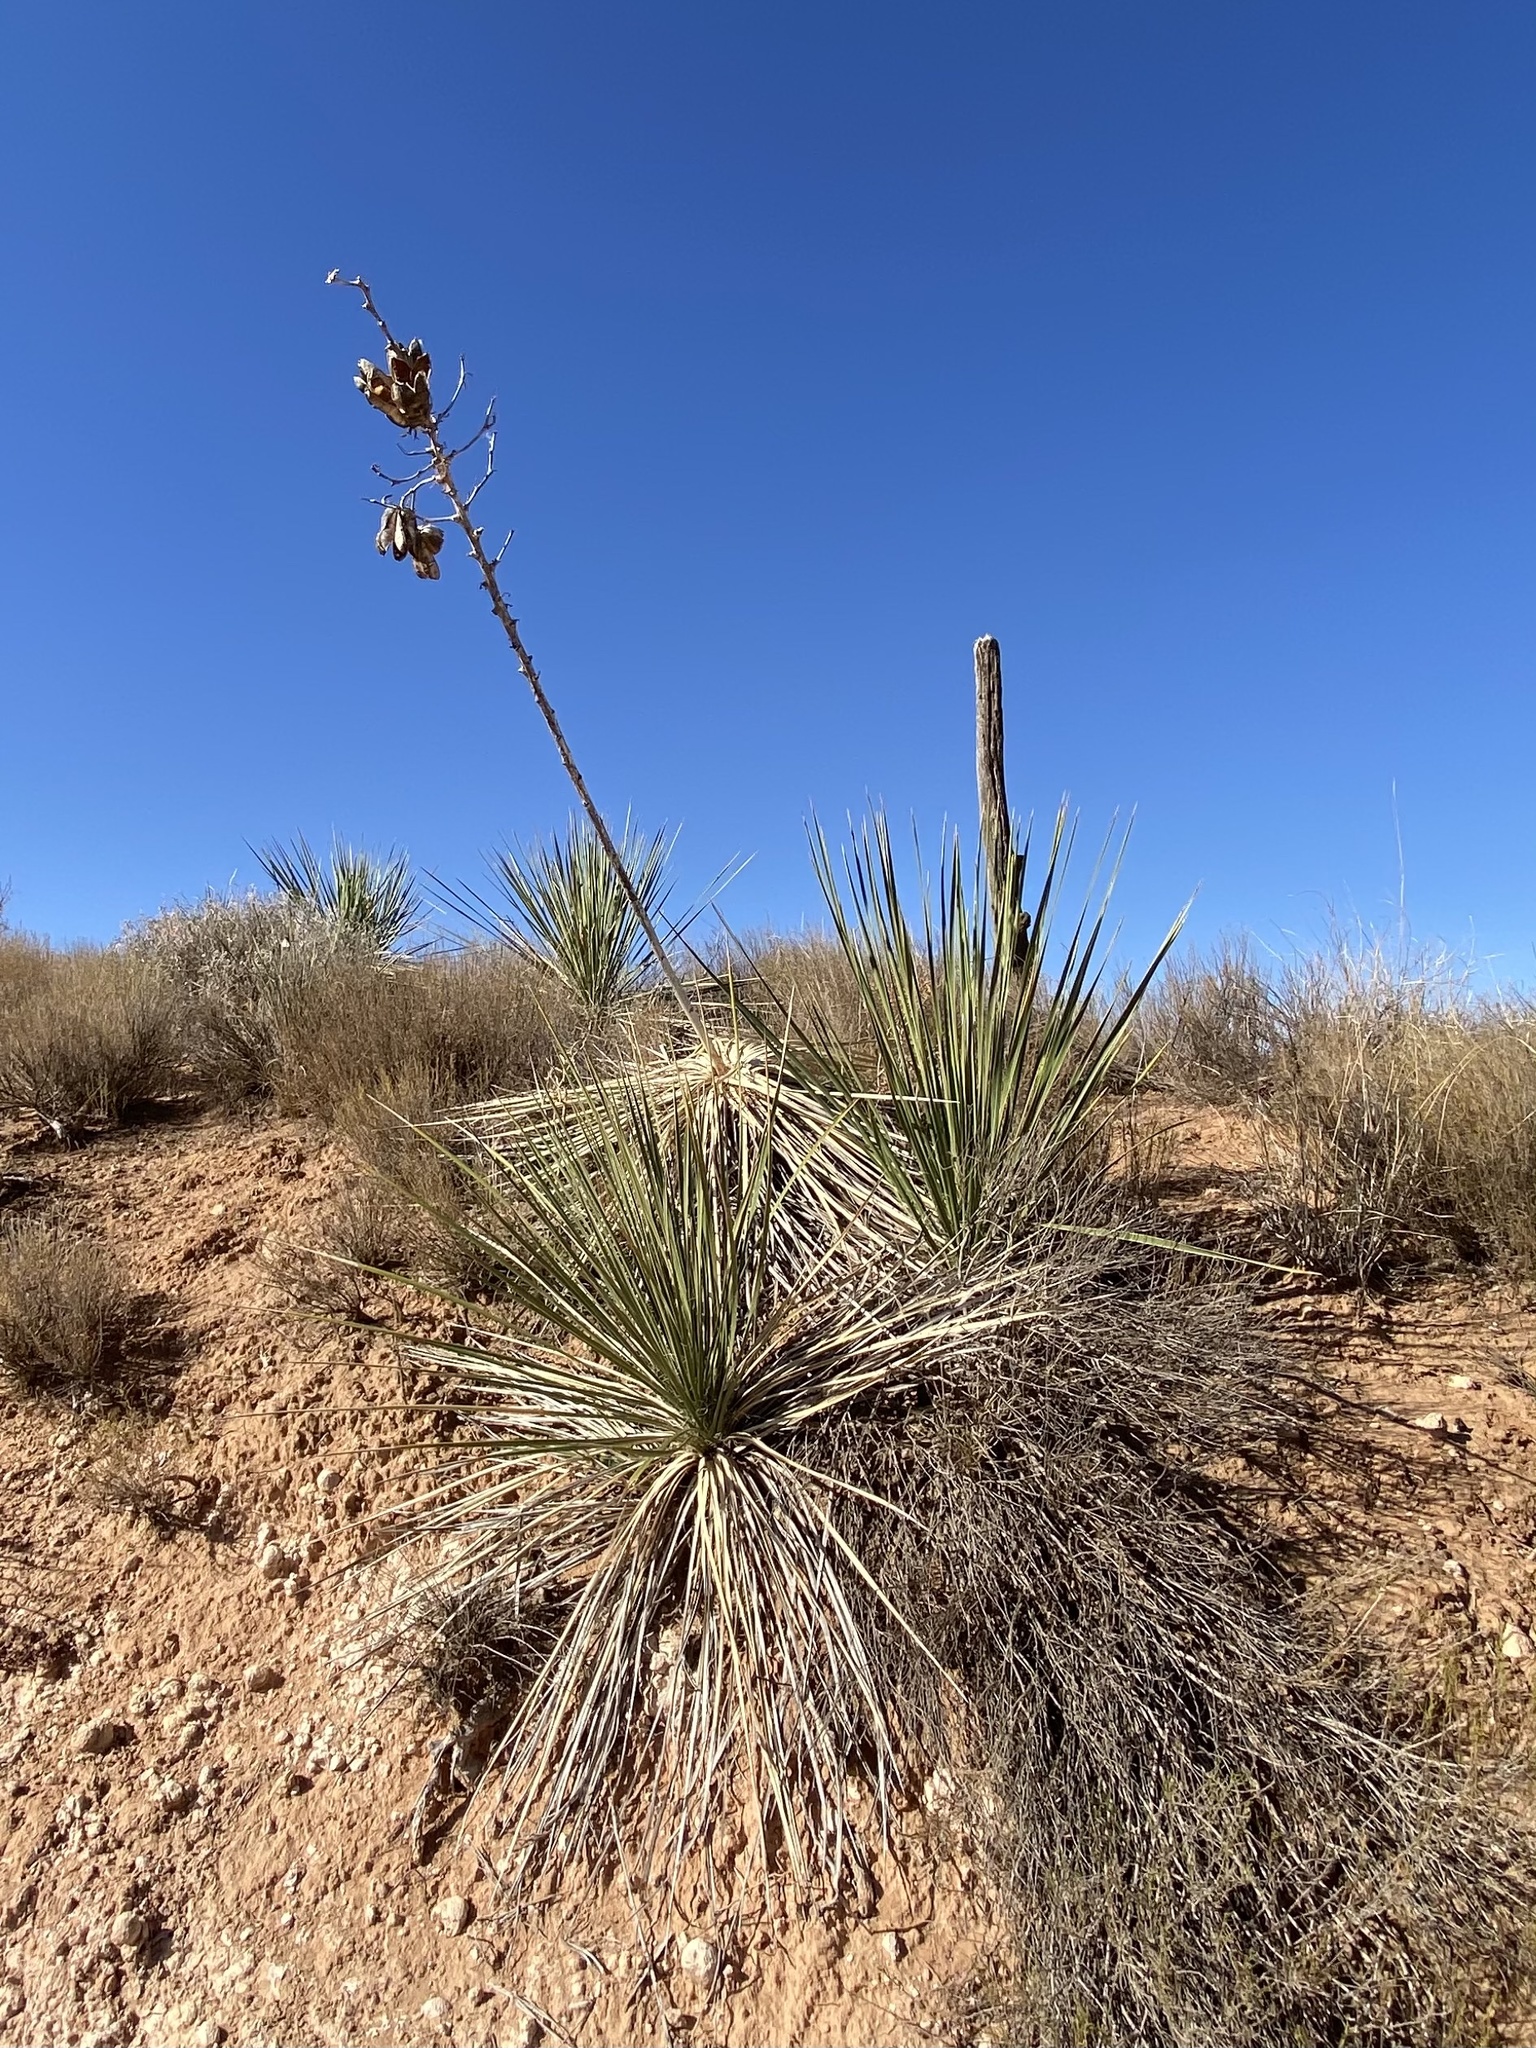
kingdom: Plantae
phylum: Tracheophyta
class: Liliopsida
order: Asparagales
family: Asparagaceae
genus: Yucca
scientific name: Yucca campestris
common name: Plains yucca
